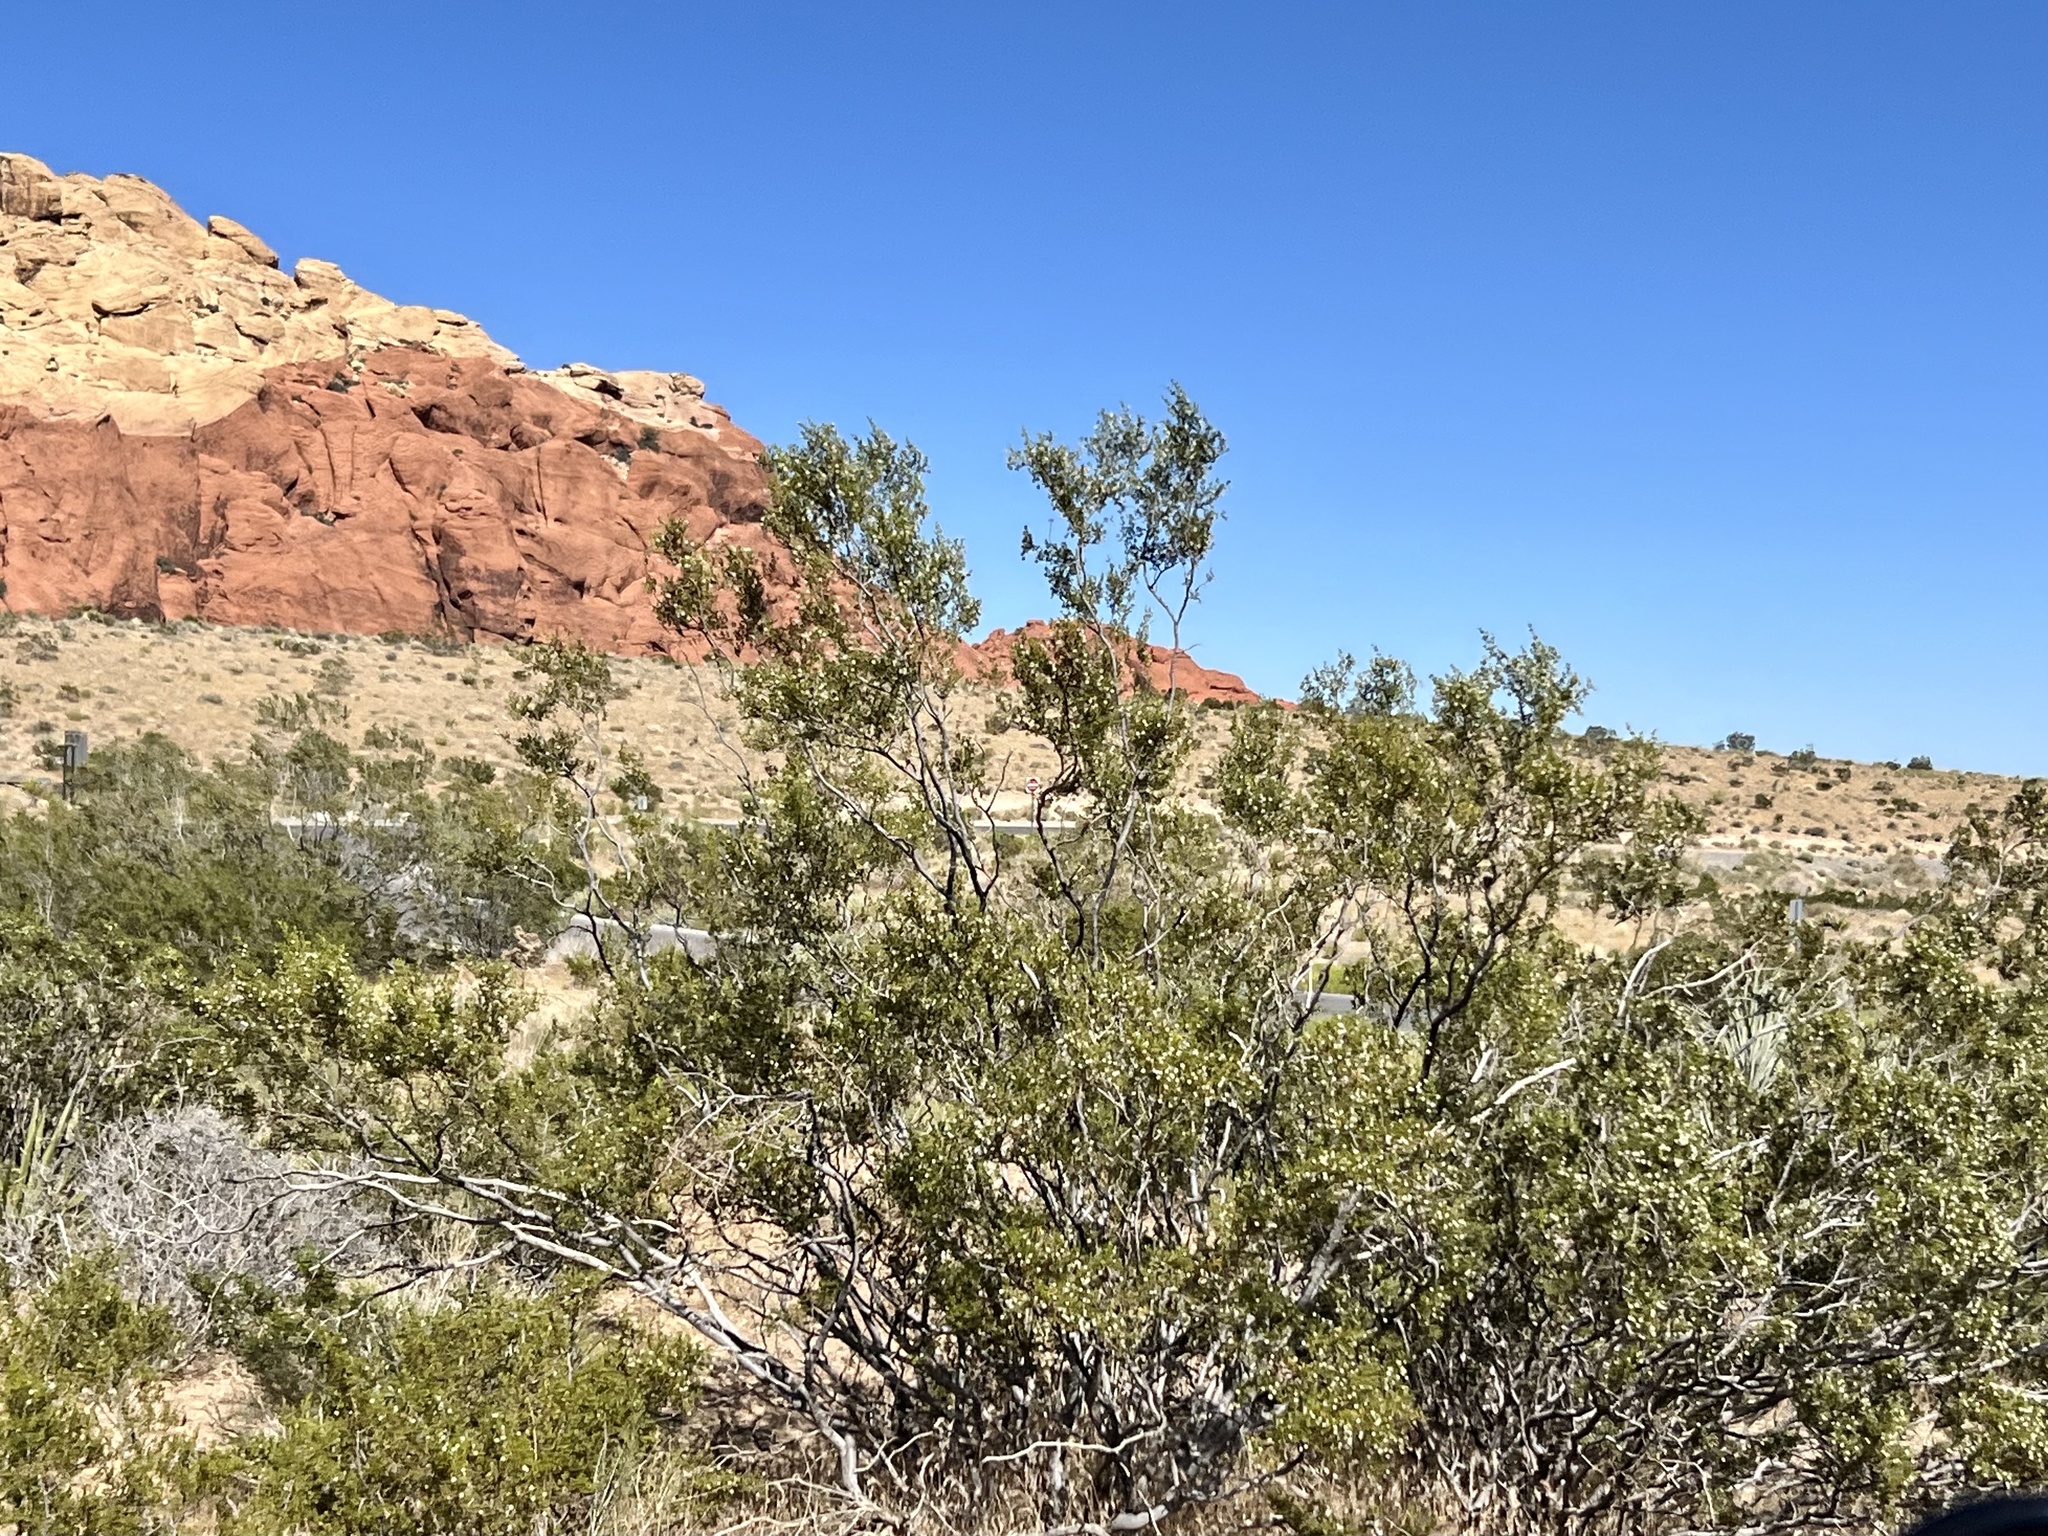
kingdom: Plantae
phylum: Tracheophyta
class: Magnoliopsida
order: Zygophyllales
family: Zygophyllaceae
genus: Larrea
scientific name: Larrea tridentata
